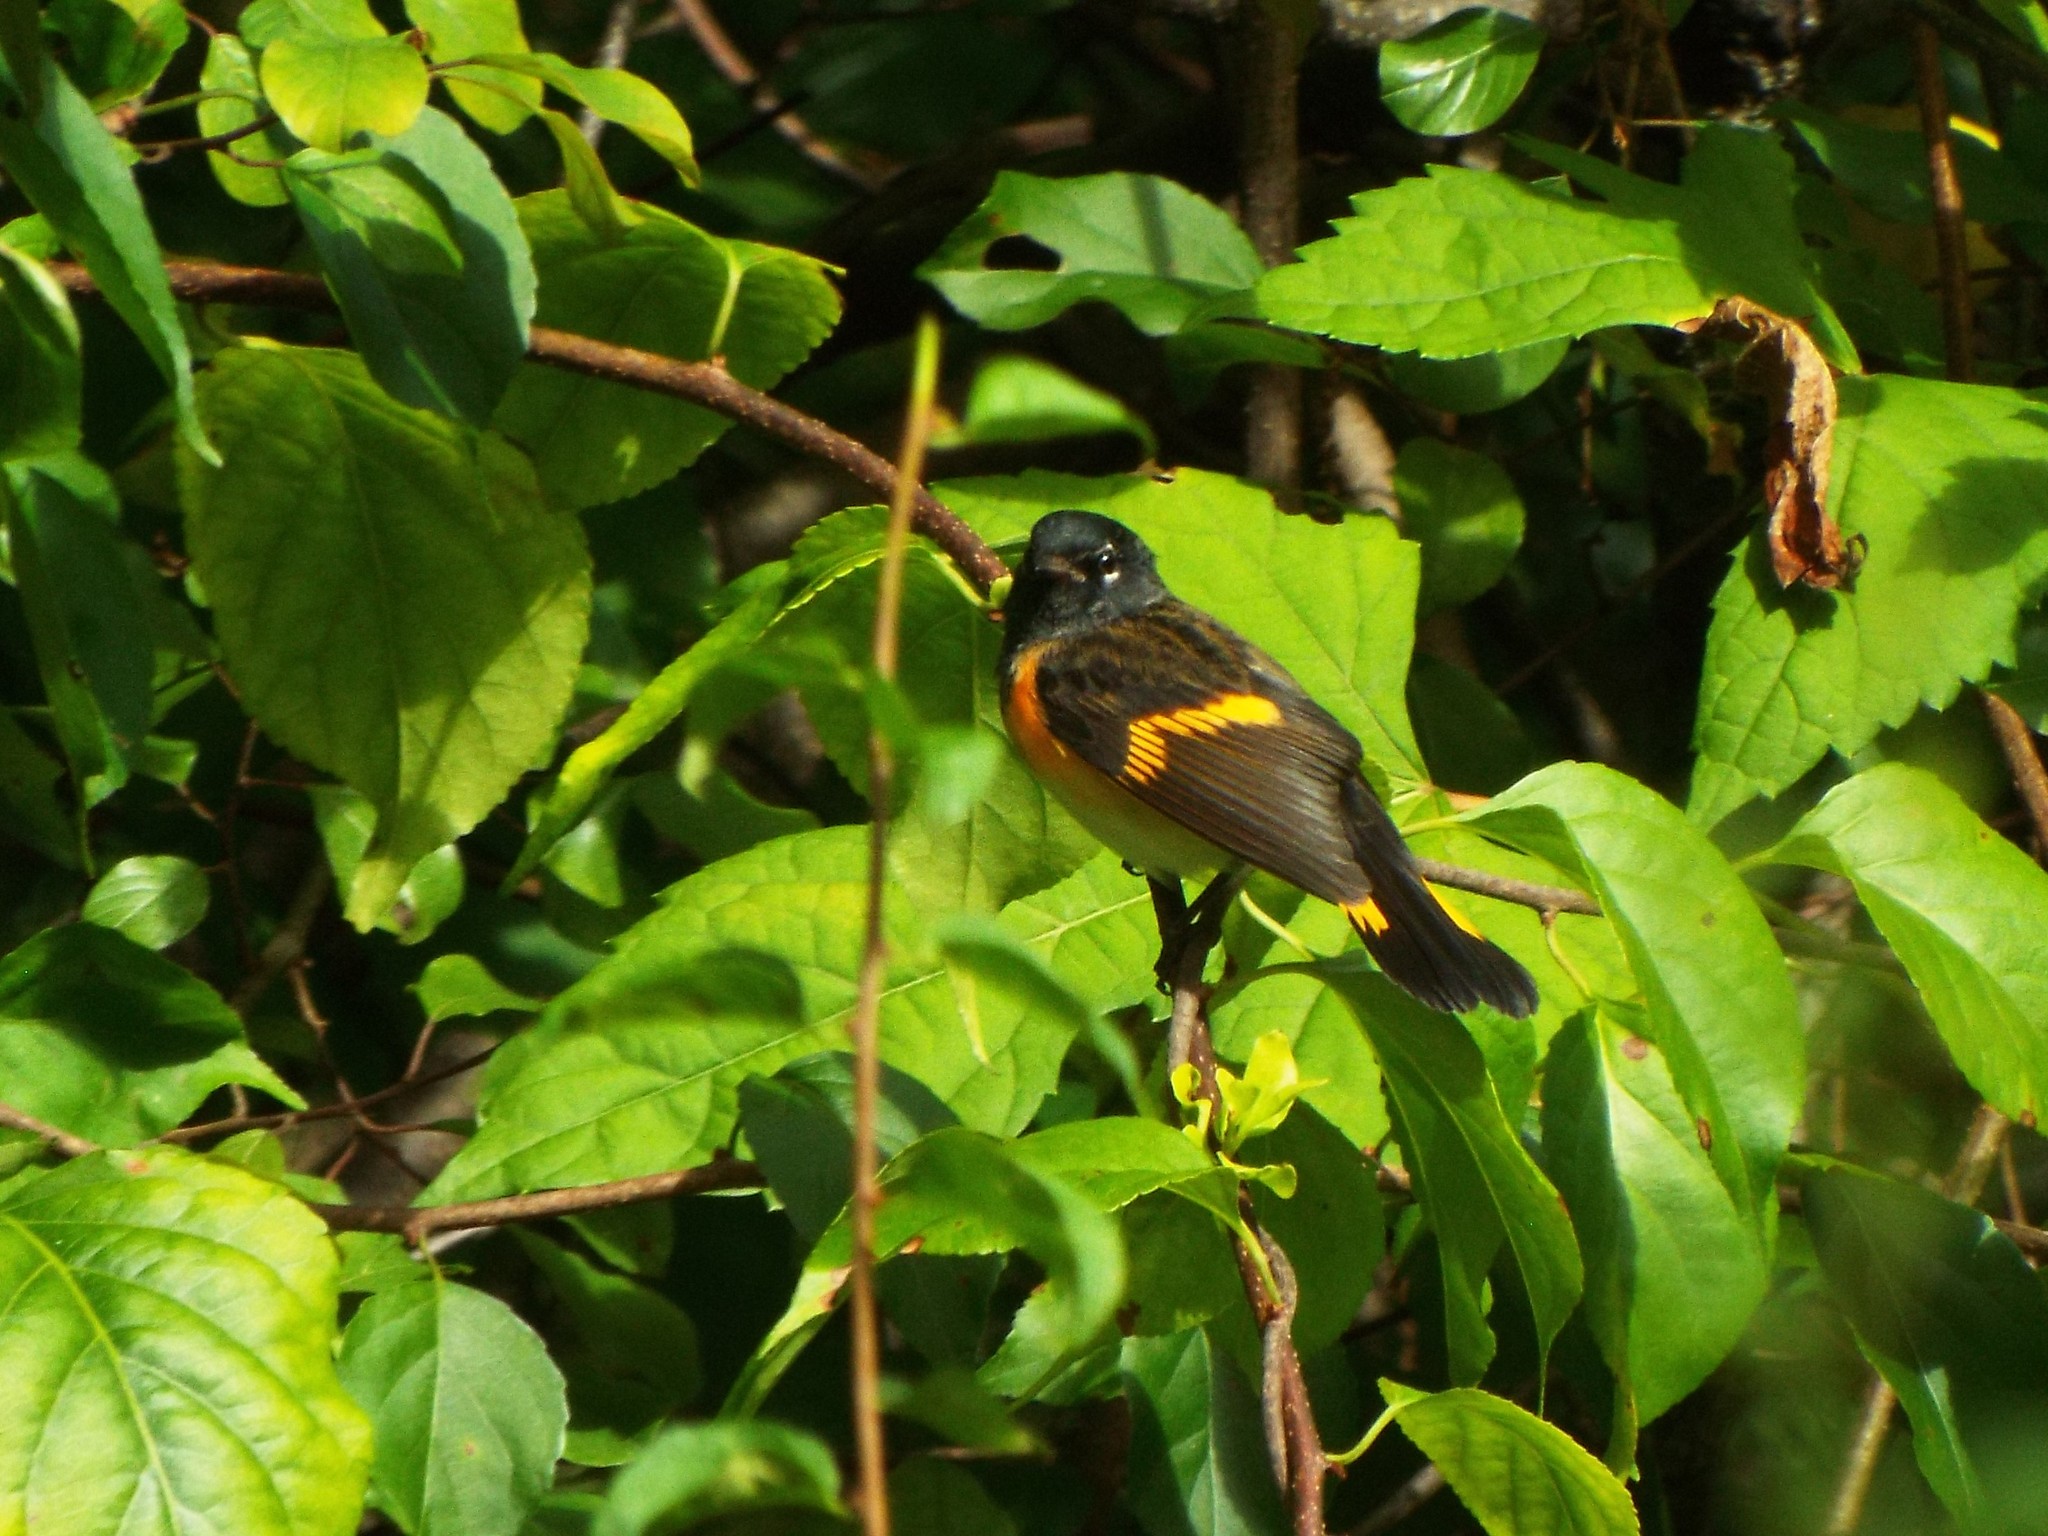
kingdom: Animalia
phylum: Chordata
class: Aves
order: Passeriformes
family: Parulidae
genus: Setophaga
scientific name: Setophaga ruticilla
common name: American redstart
